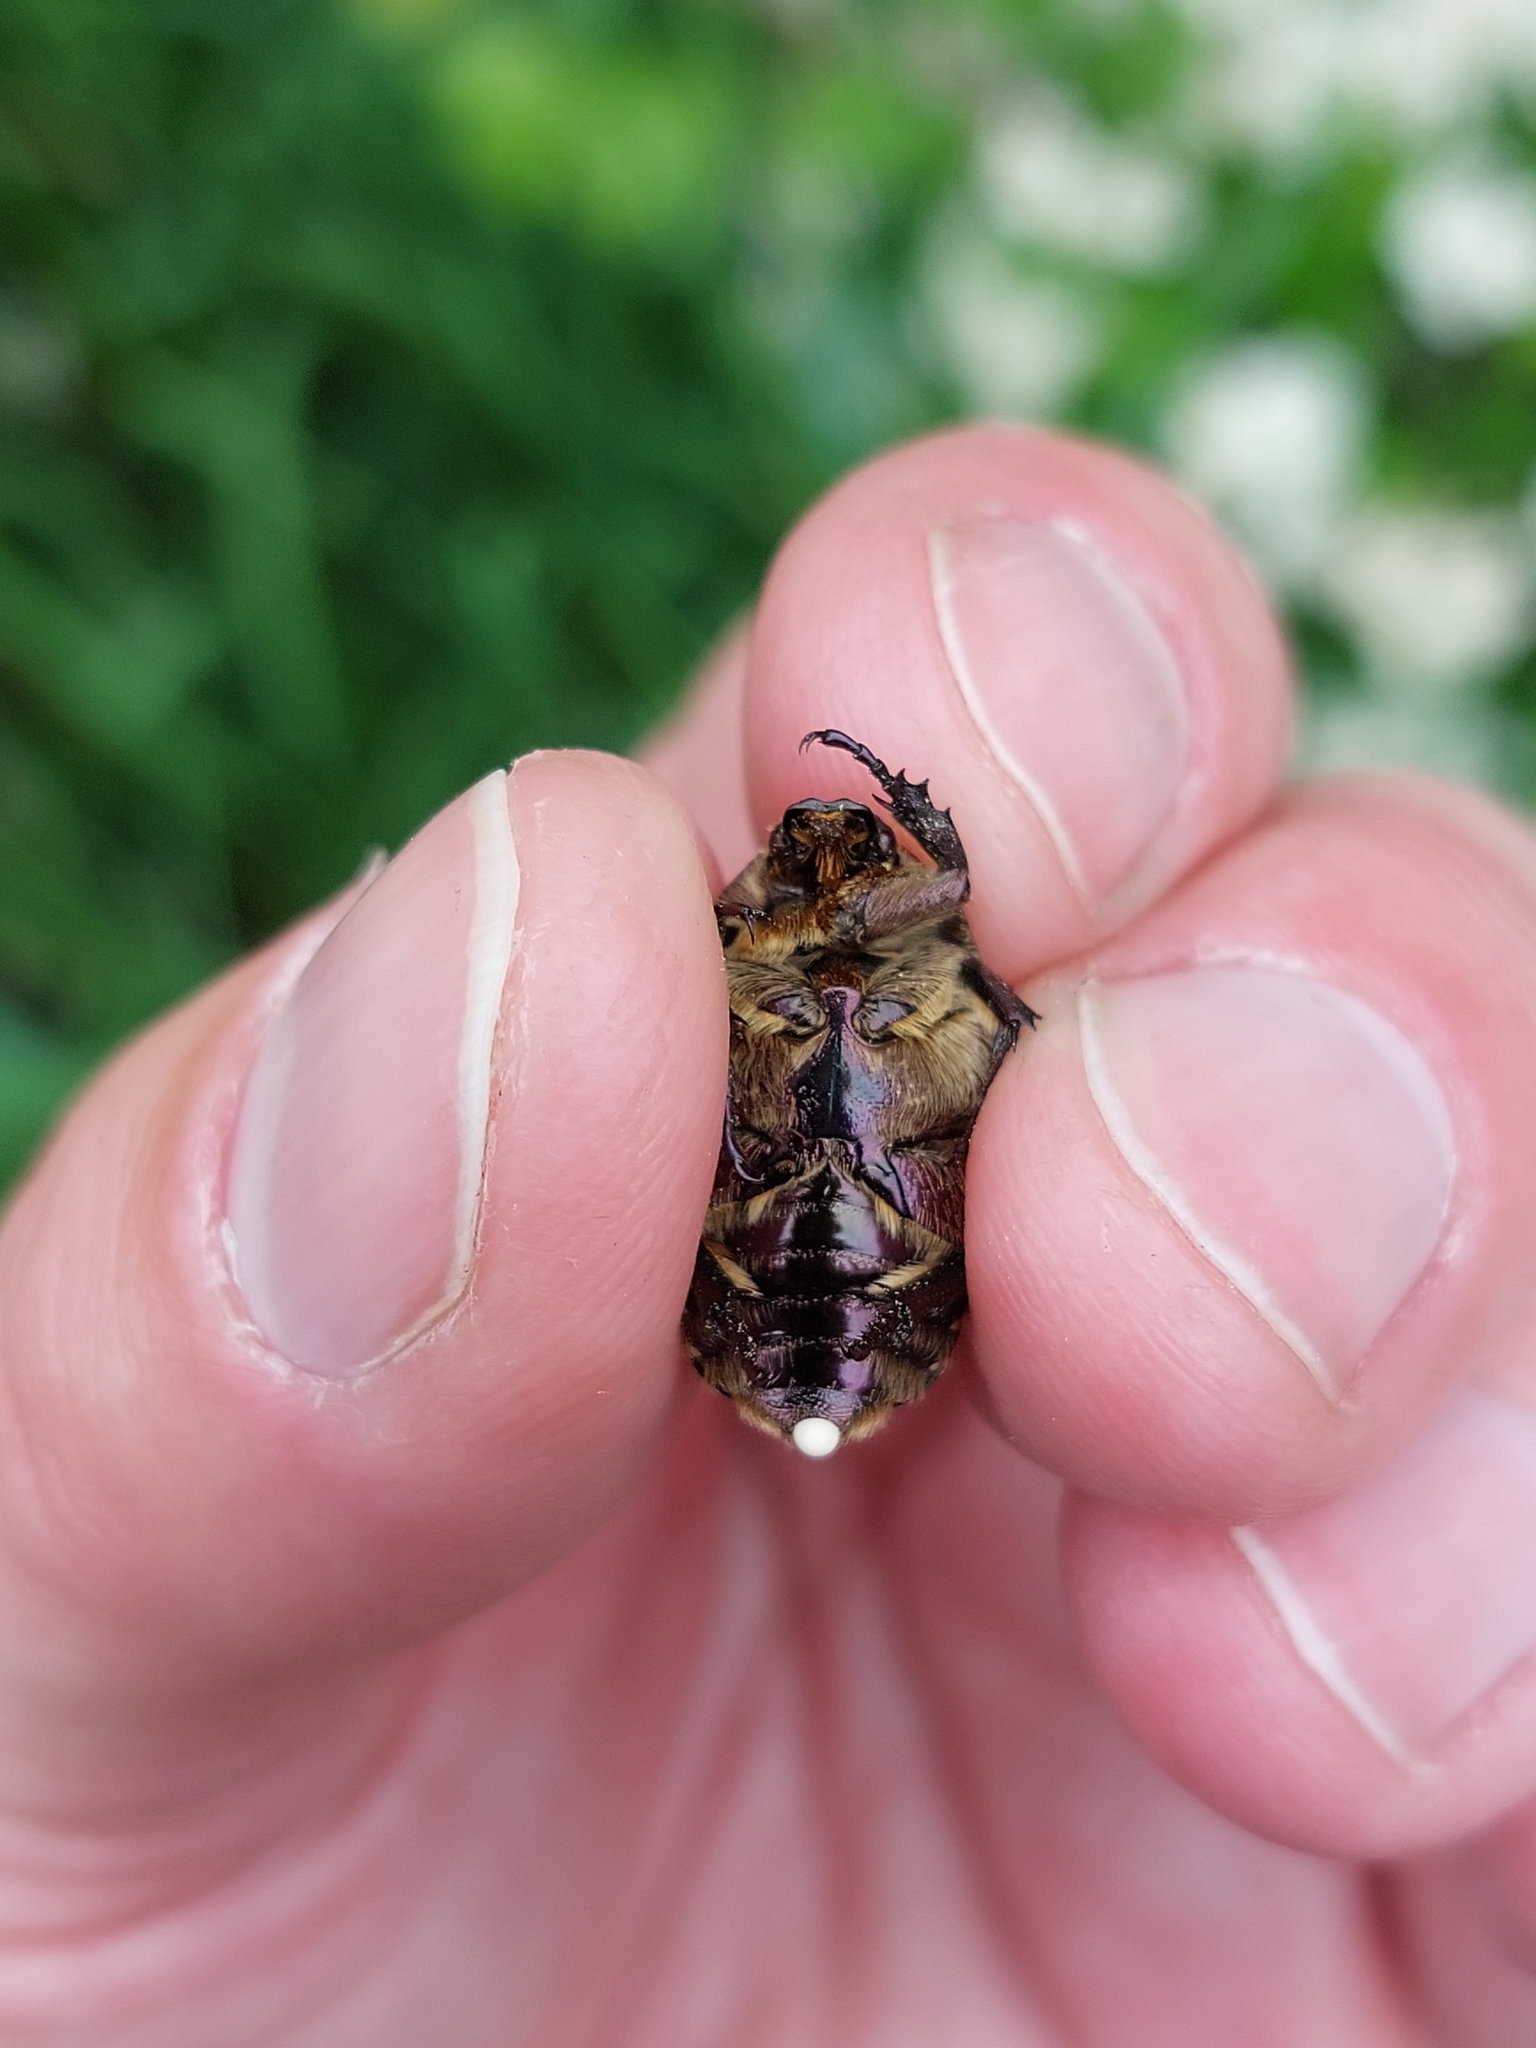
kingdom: Animalia
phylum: Arthropoda
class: Insecta
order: Coleoptera
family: Scarabaeidae
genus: Protaetia
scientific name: Protaetia cuprea
